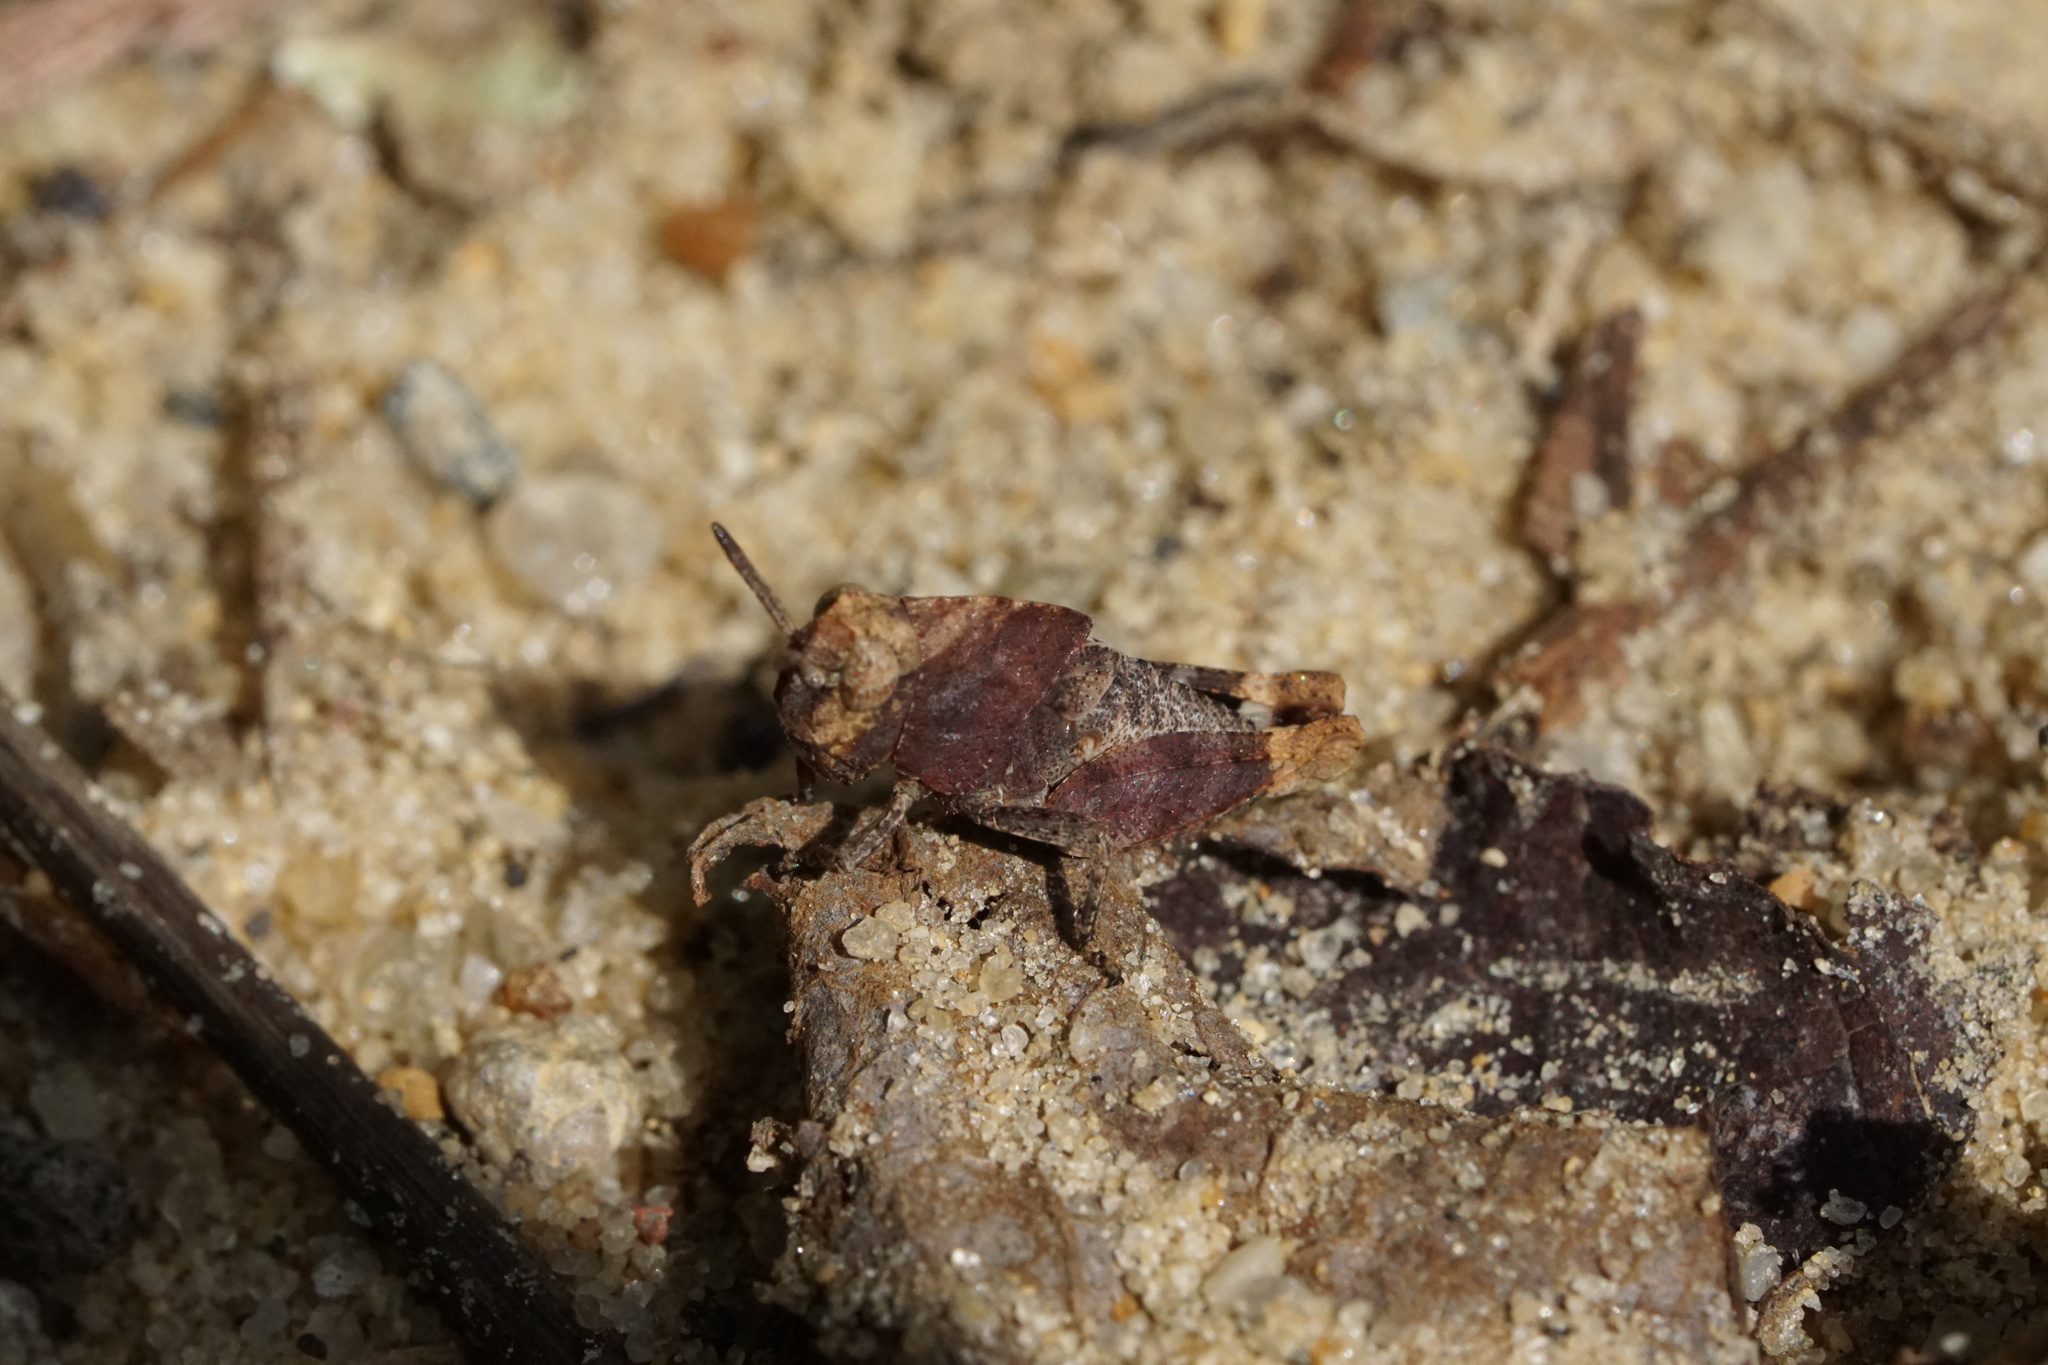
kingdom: Animalia
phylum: Arthropoda
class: Insecta
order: Orthoptera
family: Acrididae
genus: Arphia
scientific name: Arphia sulphurea
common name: Spring yellow-winged locust
